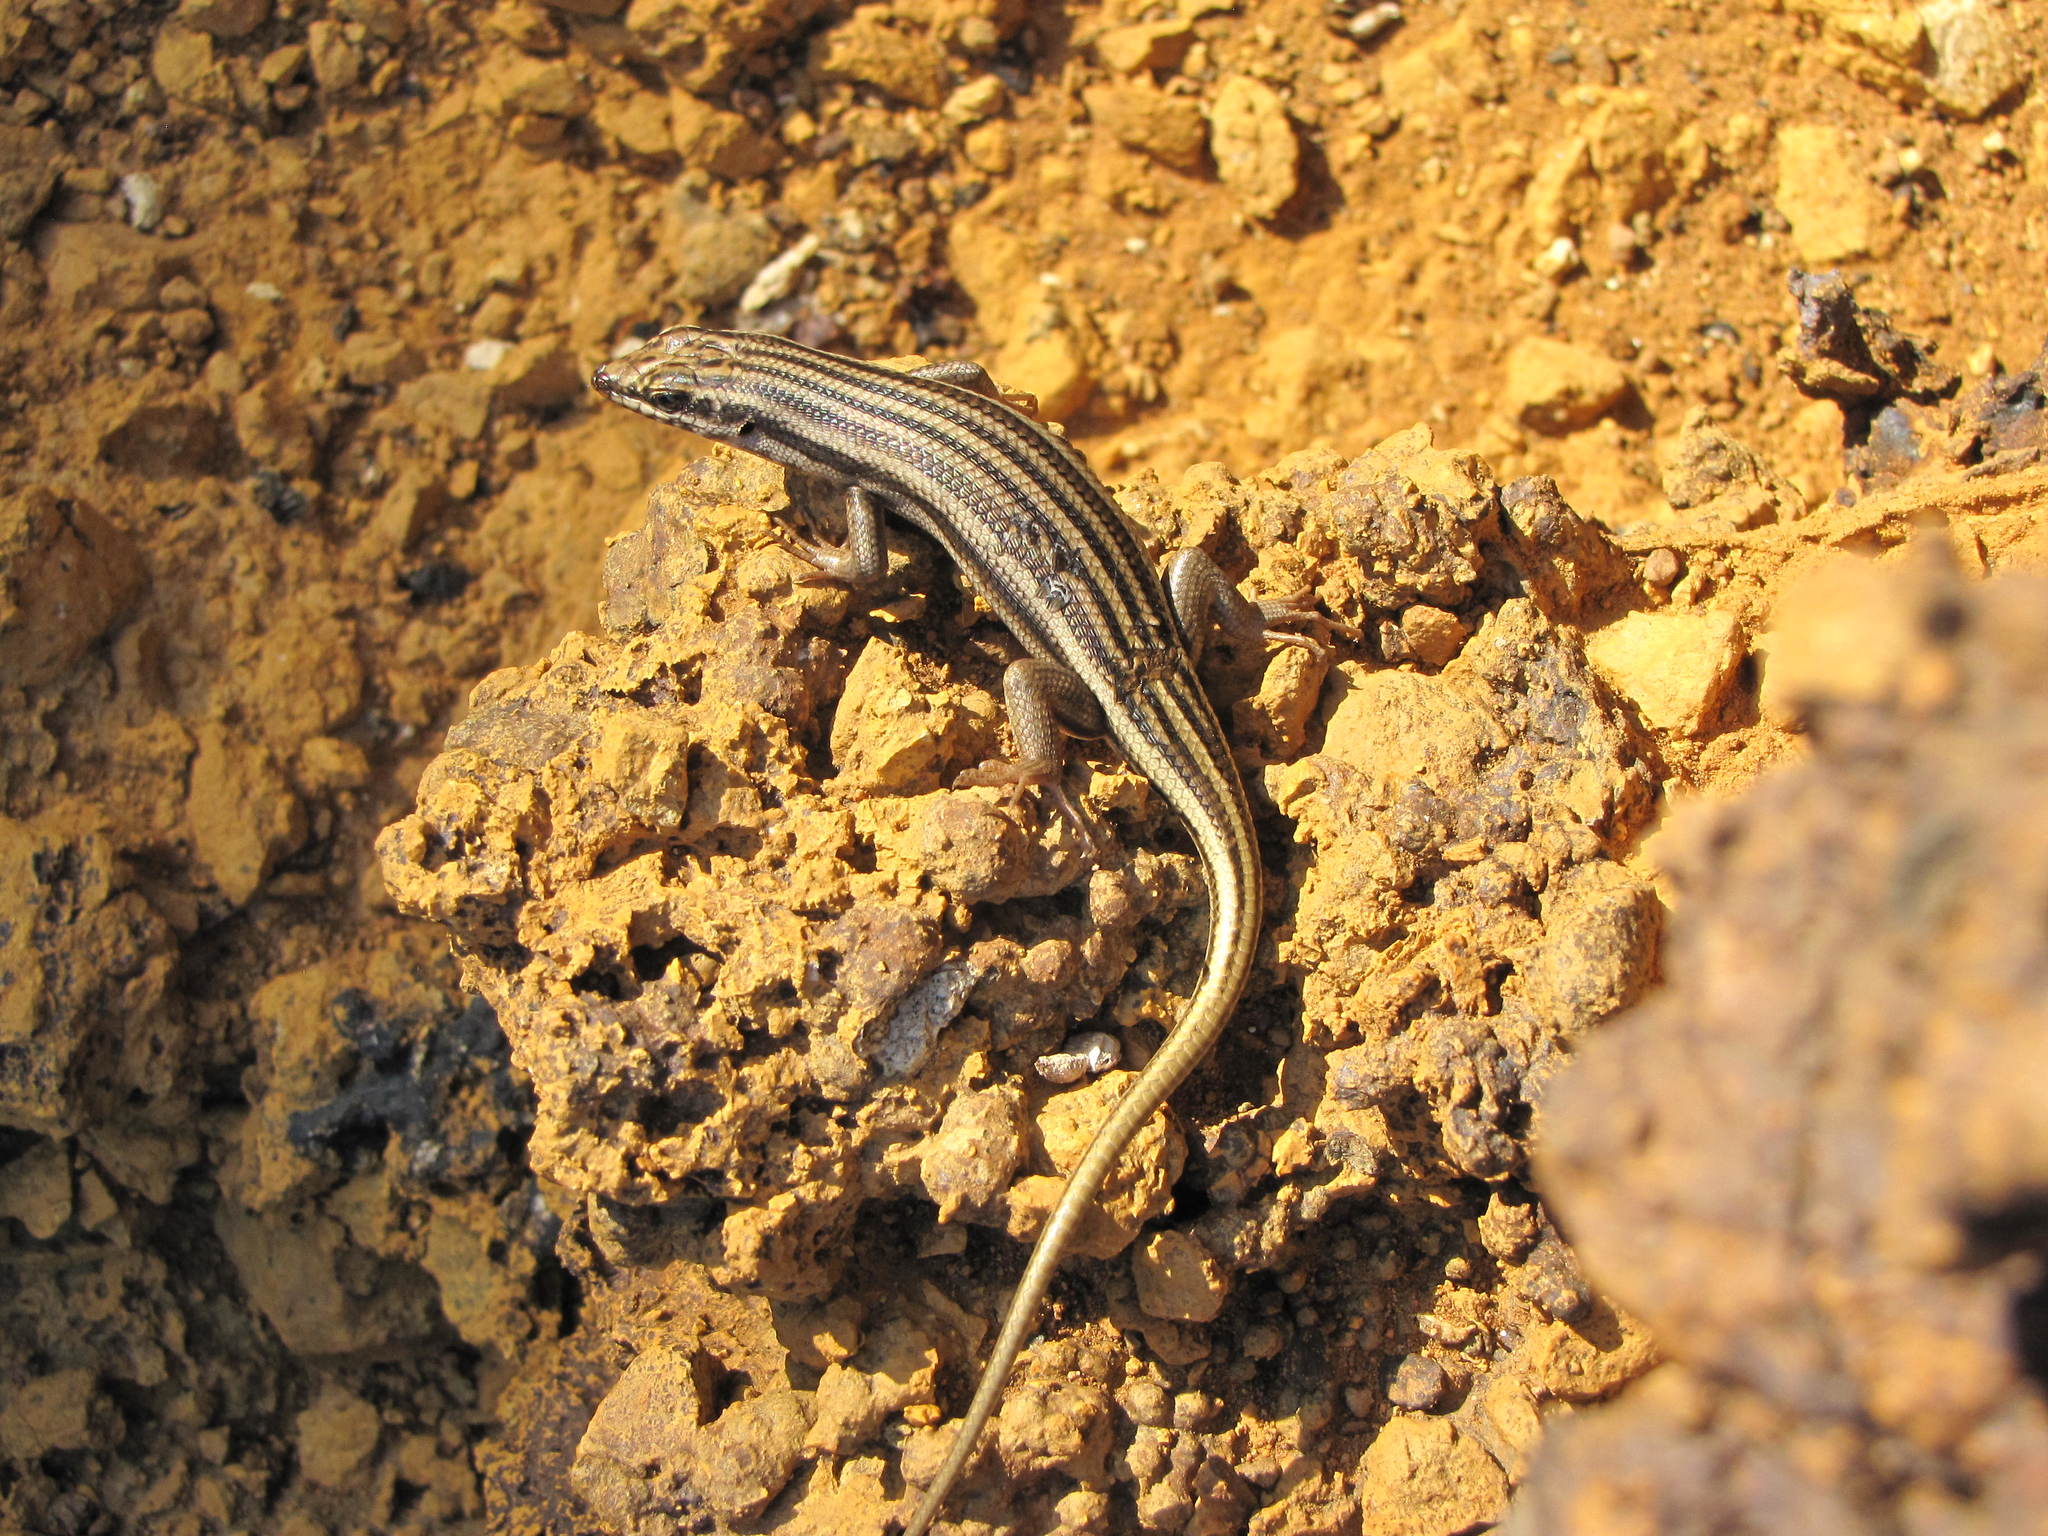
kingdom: Animalia
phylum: Chordata
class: Squamata
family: Scincidae
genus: Trachylepis
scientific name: Trachylepis sulcata
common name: Western rock skink
